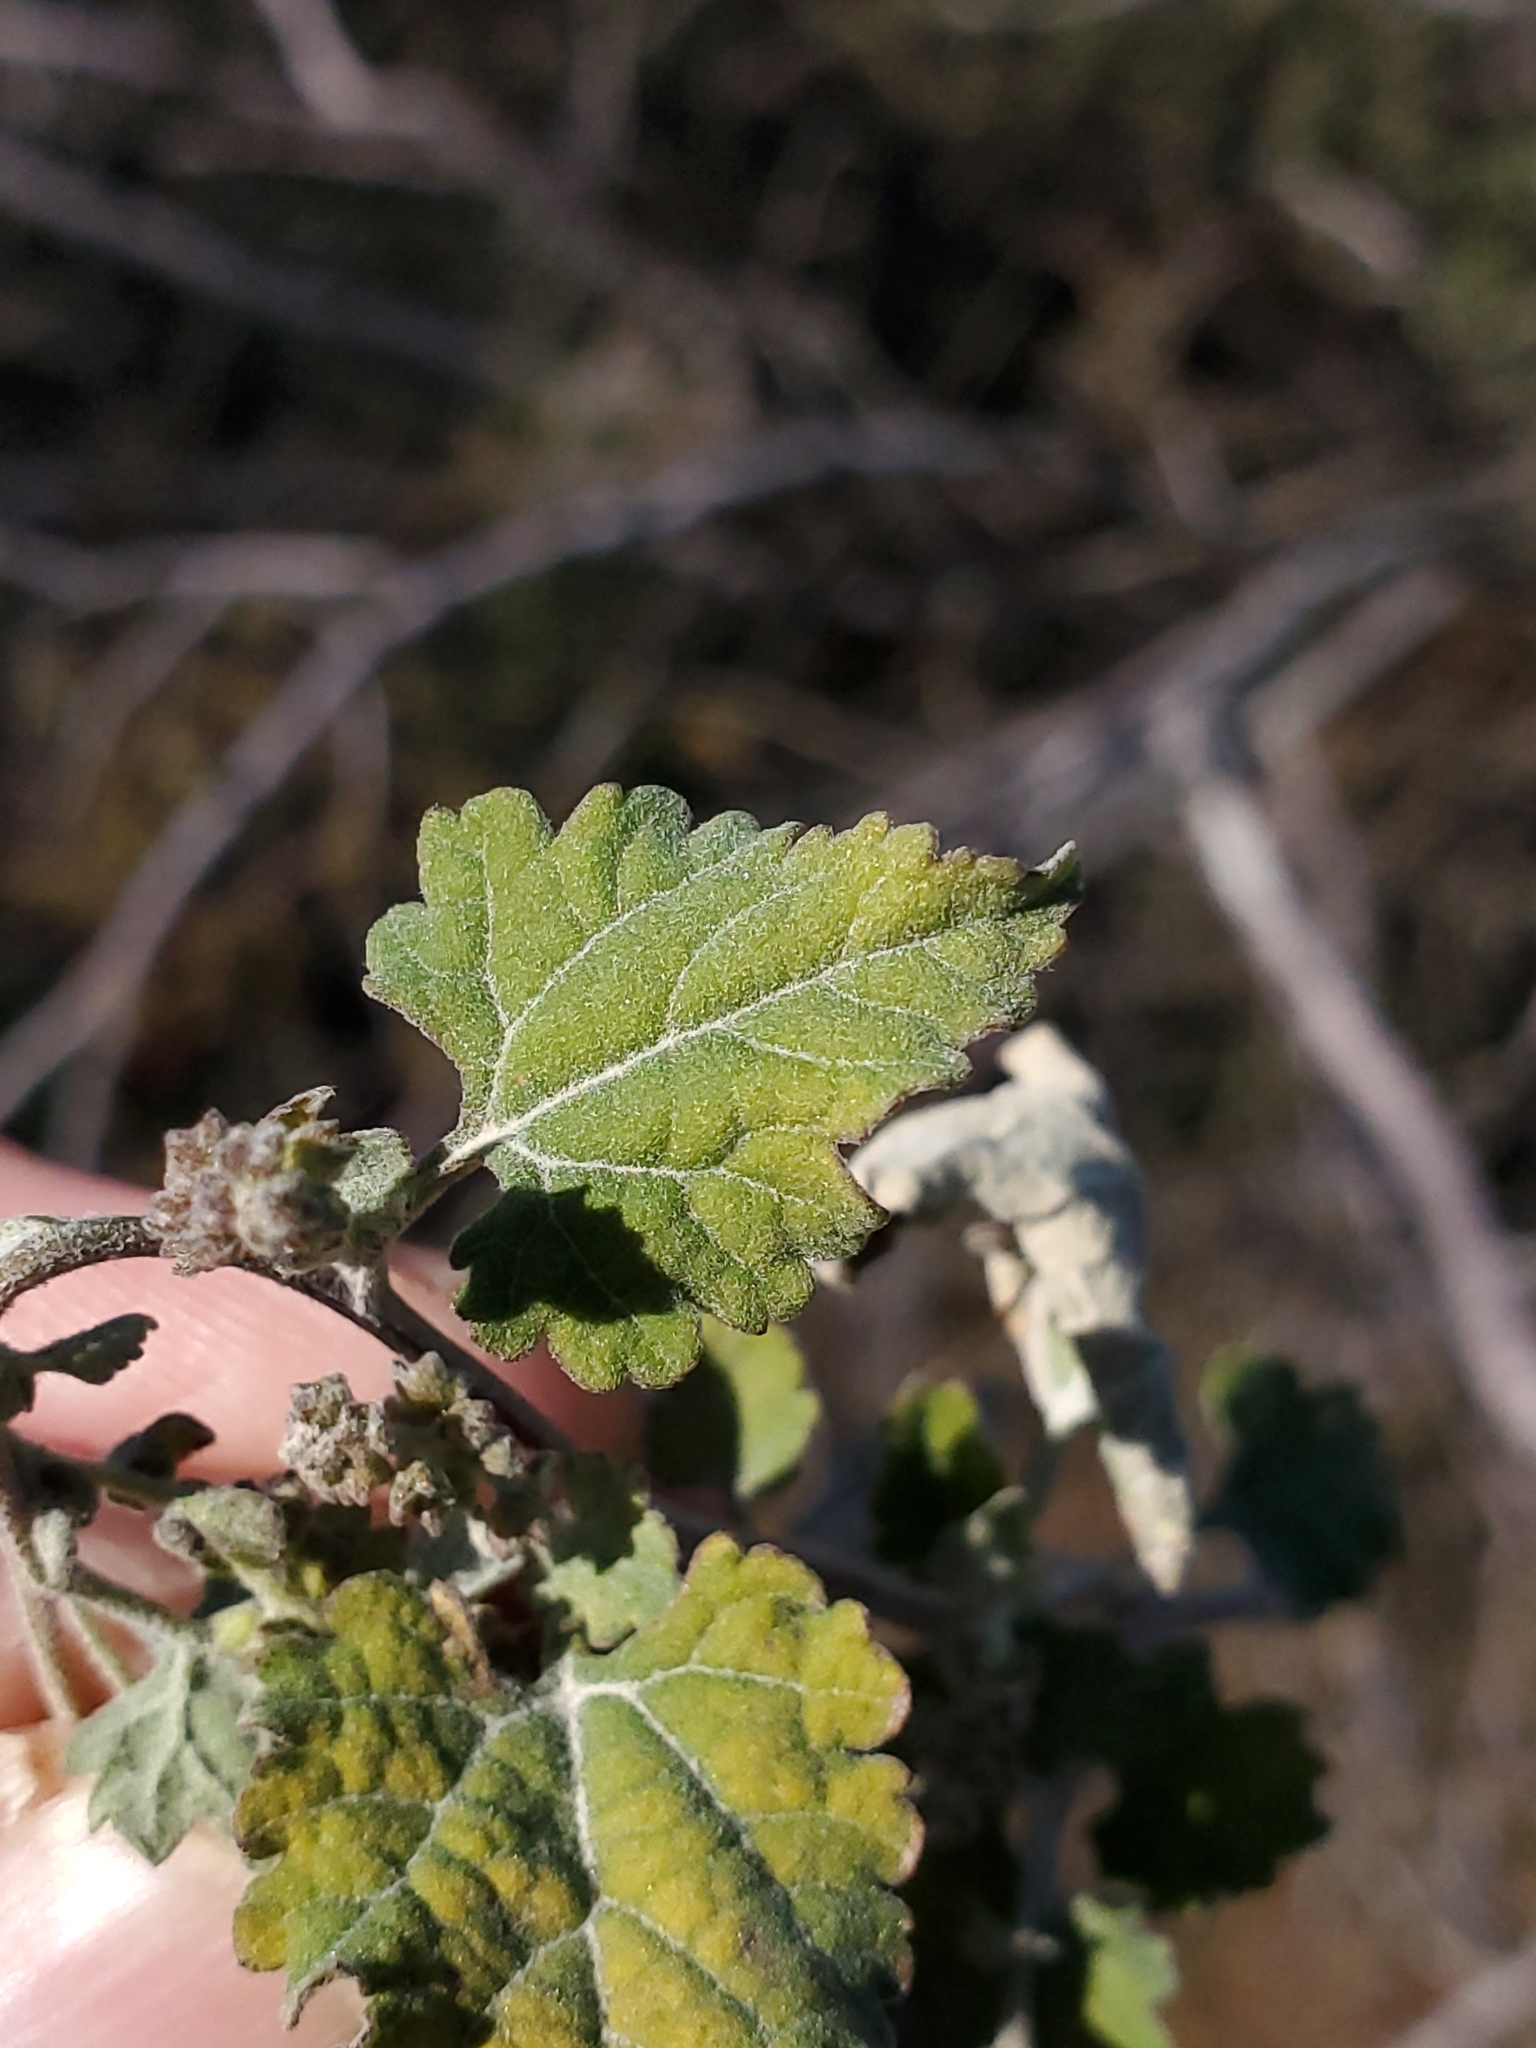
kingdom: Plantae
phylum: Tracheophyta
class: Magnoliopsida
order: Asterales
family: Asteraceae
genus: Ambrosia
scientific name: Ambrosia cordifolia
